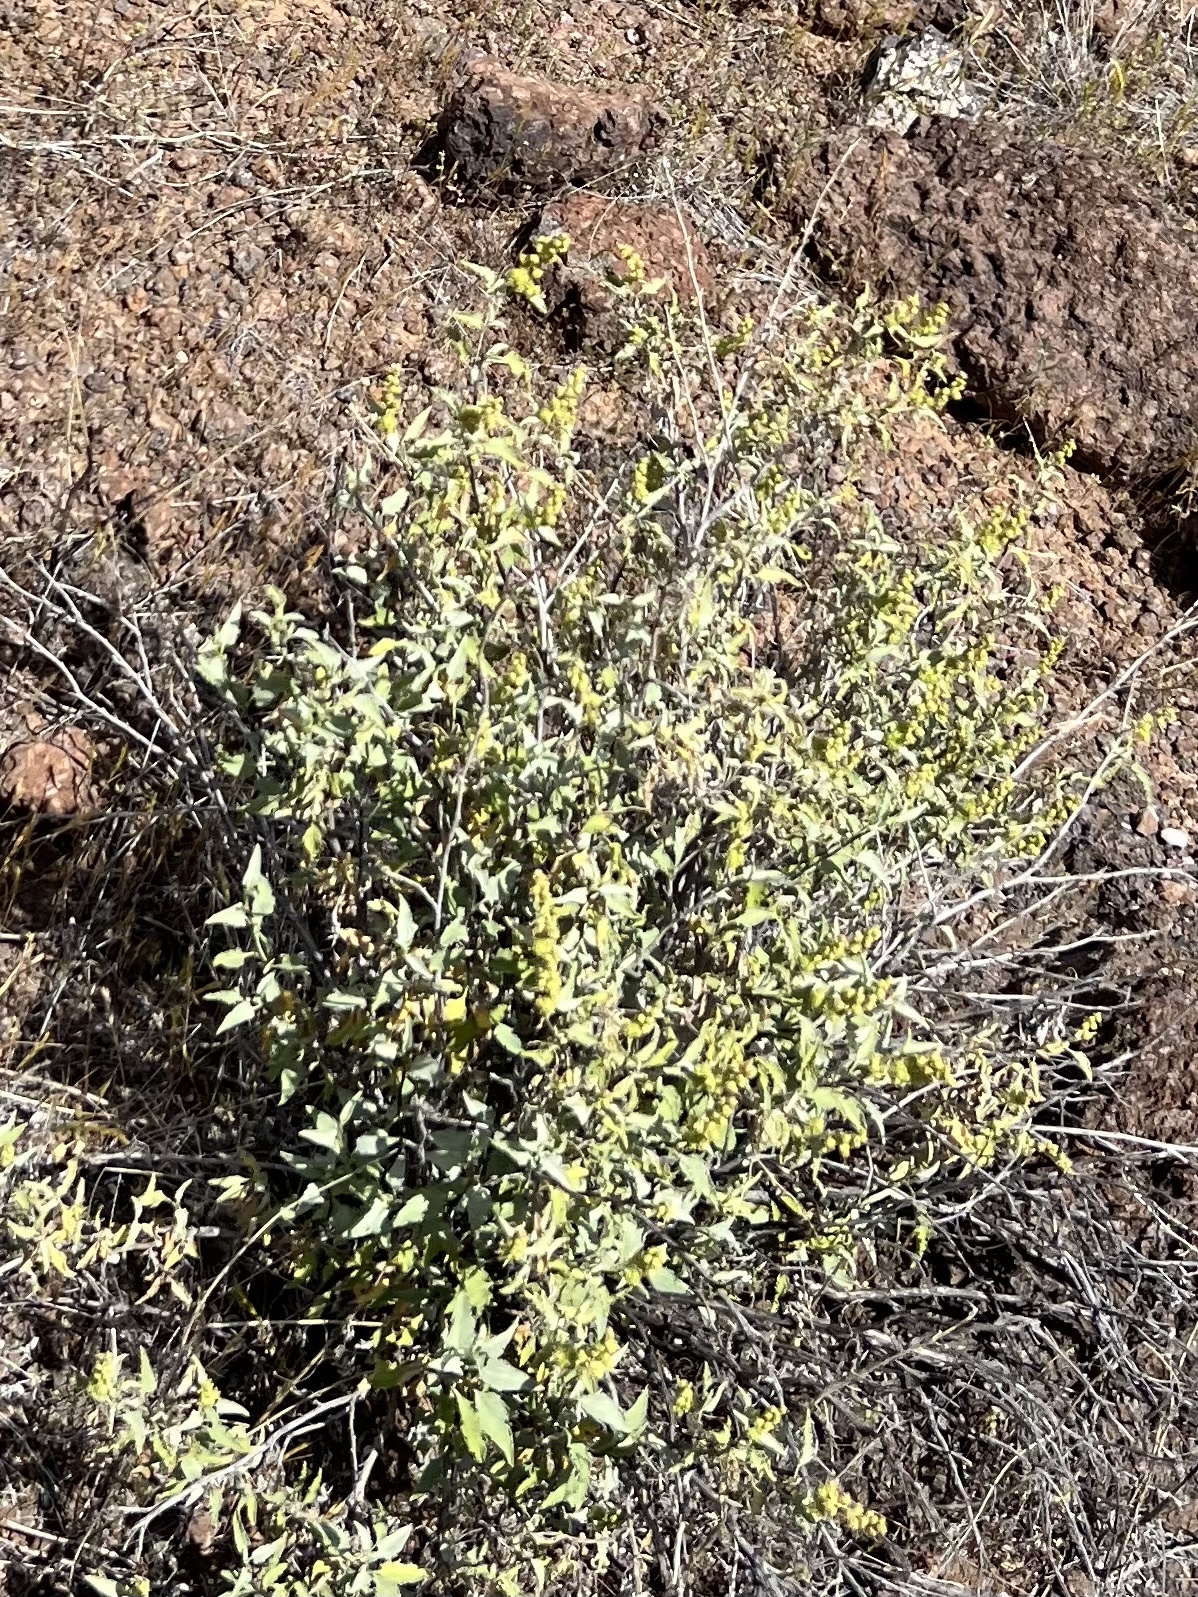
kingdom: Plantae
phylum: Tracheophyta
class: Magnoliopsida
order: Asterales
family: Asteraceae
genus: Ambrosia
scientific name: Ambrosia deltoidea
